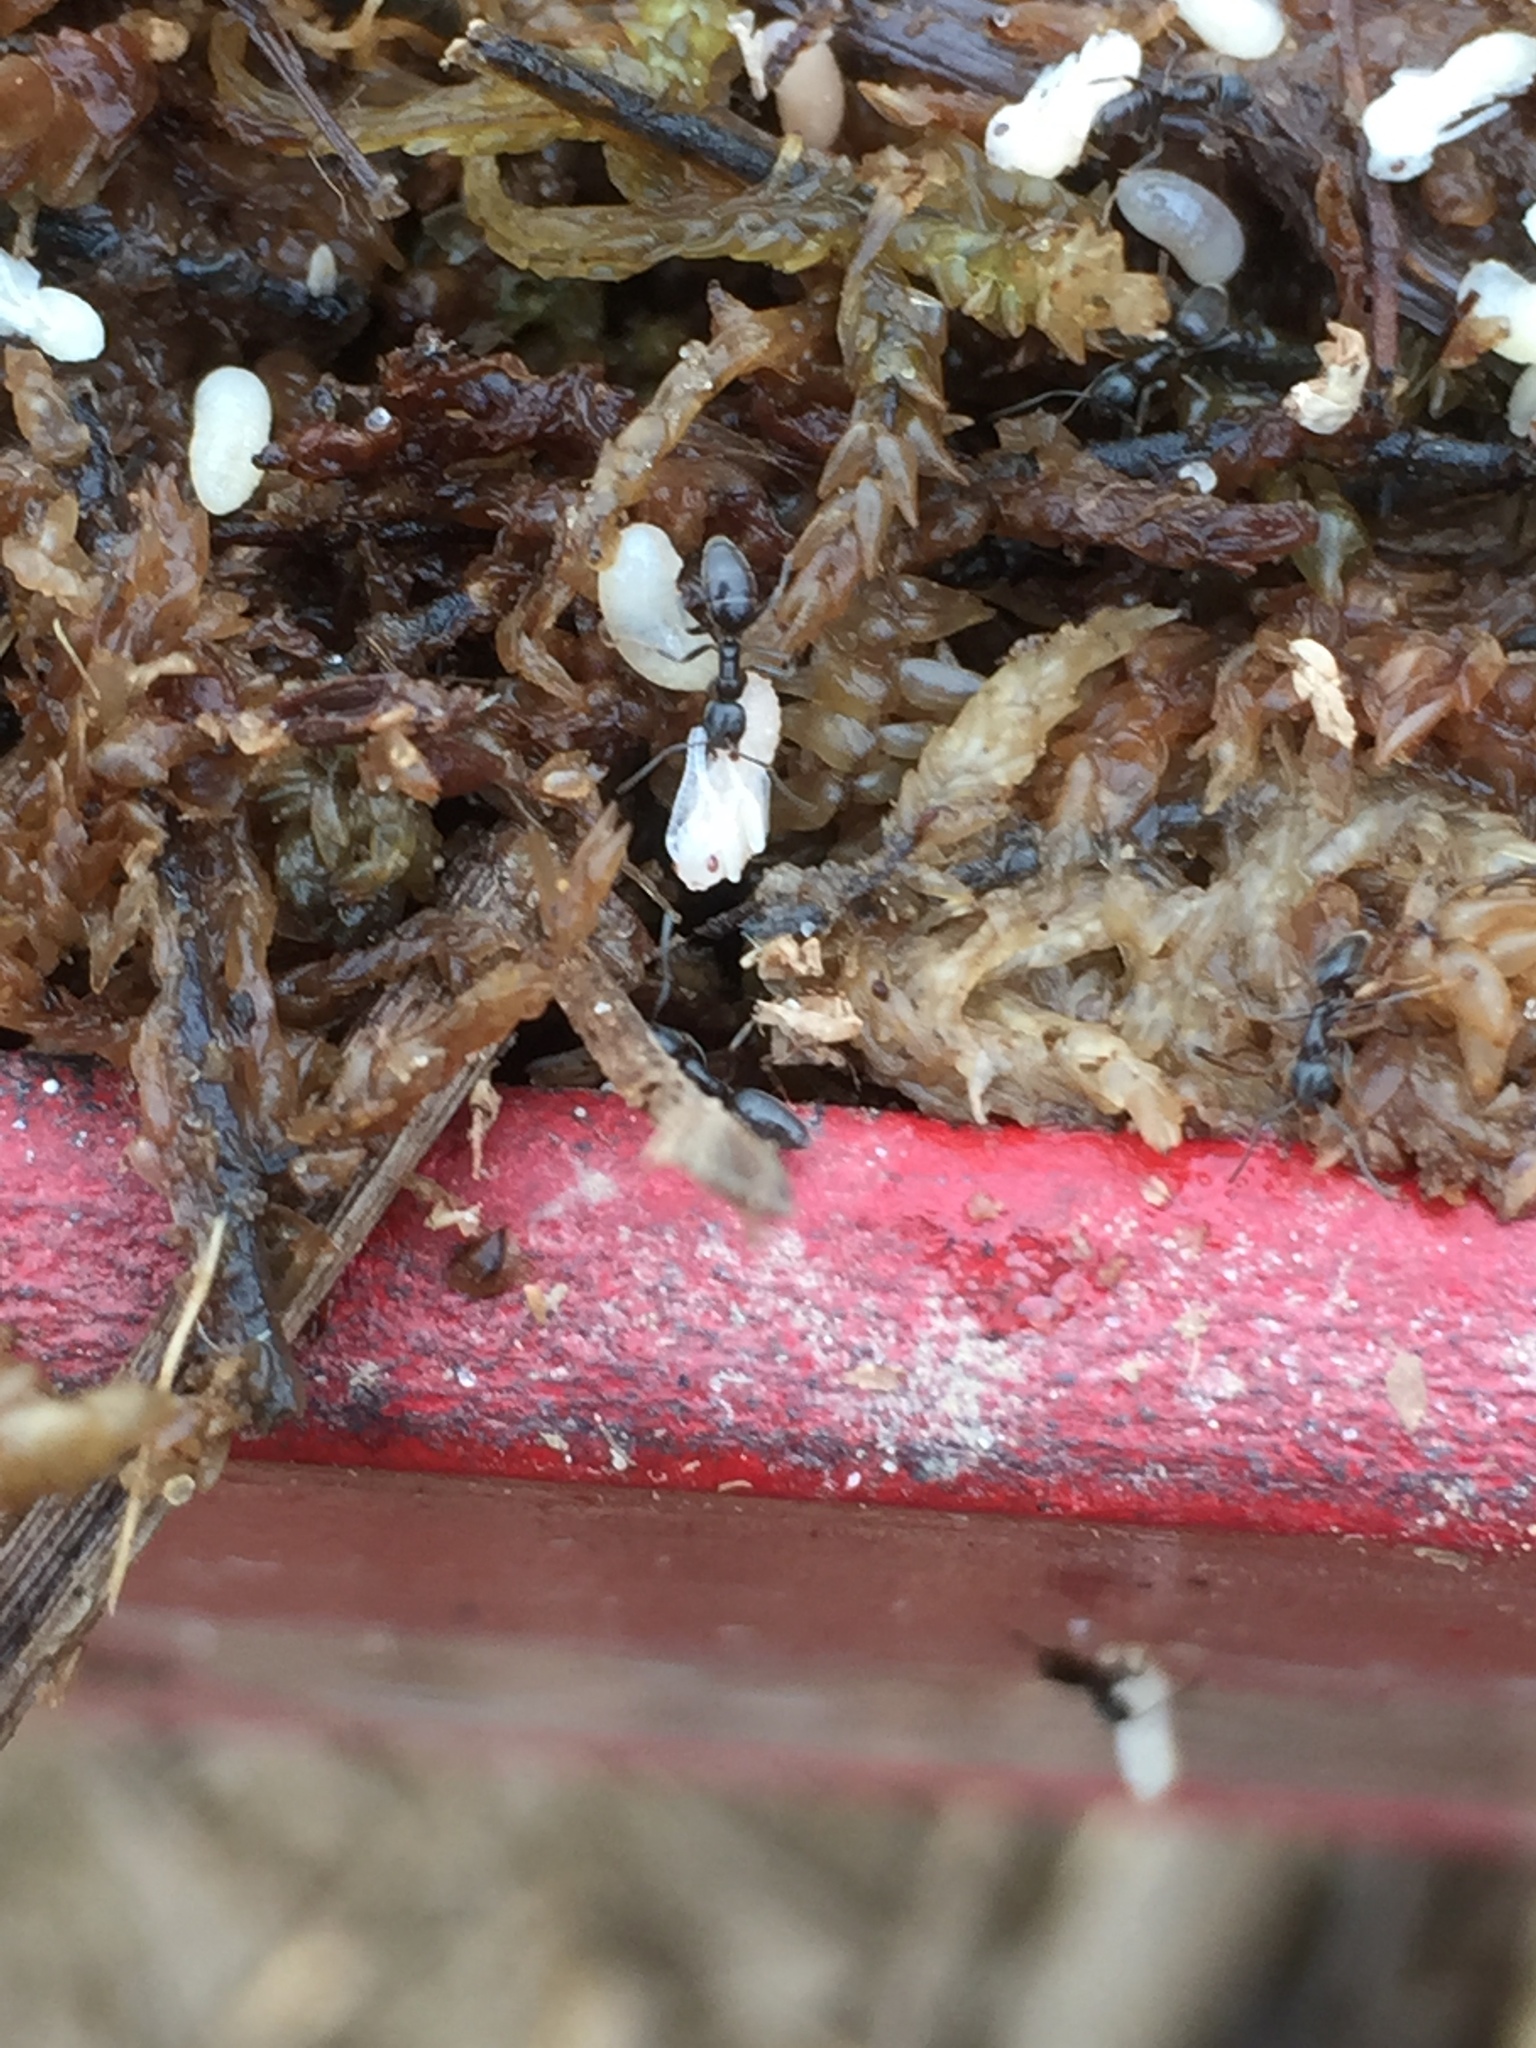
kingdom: Animalia
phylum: Arthropoda
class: Insecta
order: Hymenoptera
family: Formicidae
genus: Tapinoma
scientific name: Tapinoma sessile
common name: Odorous house ant
